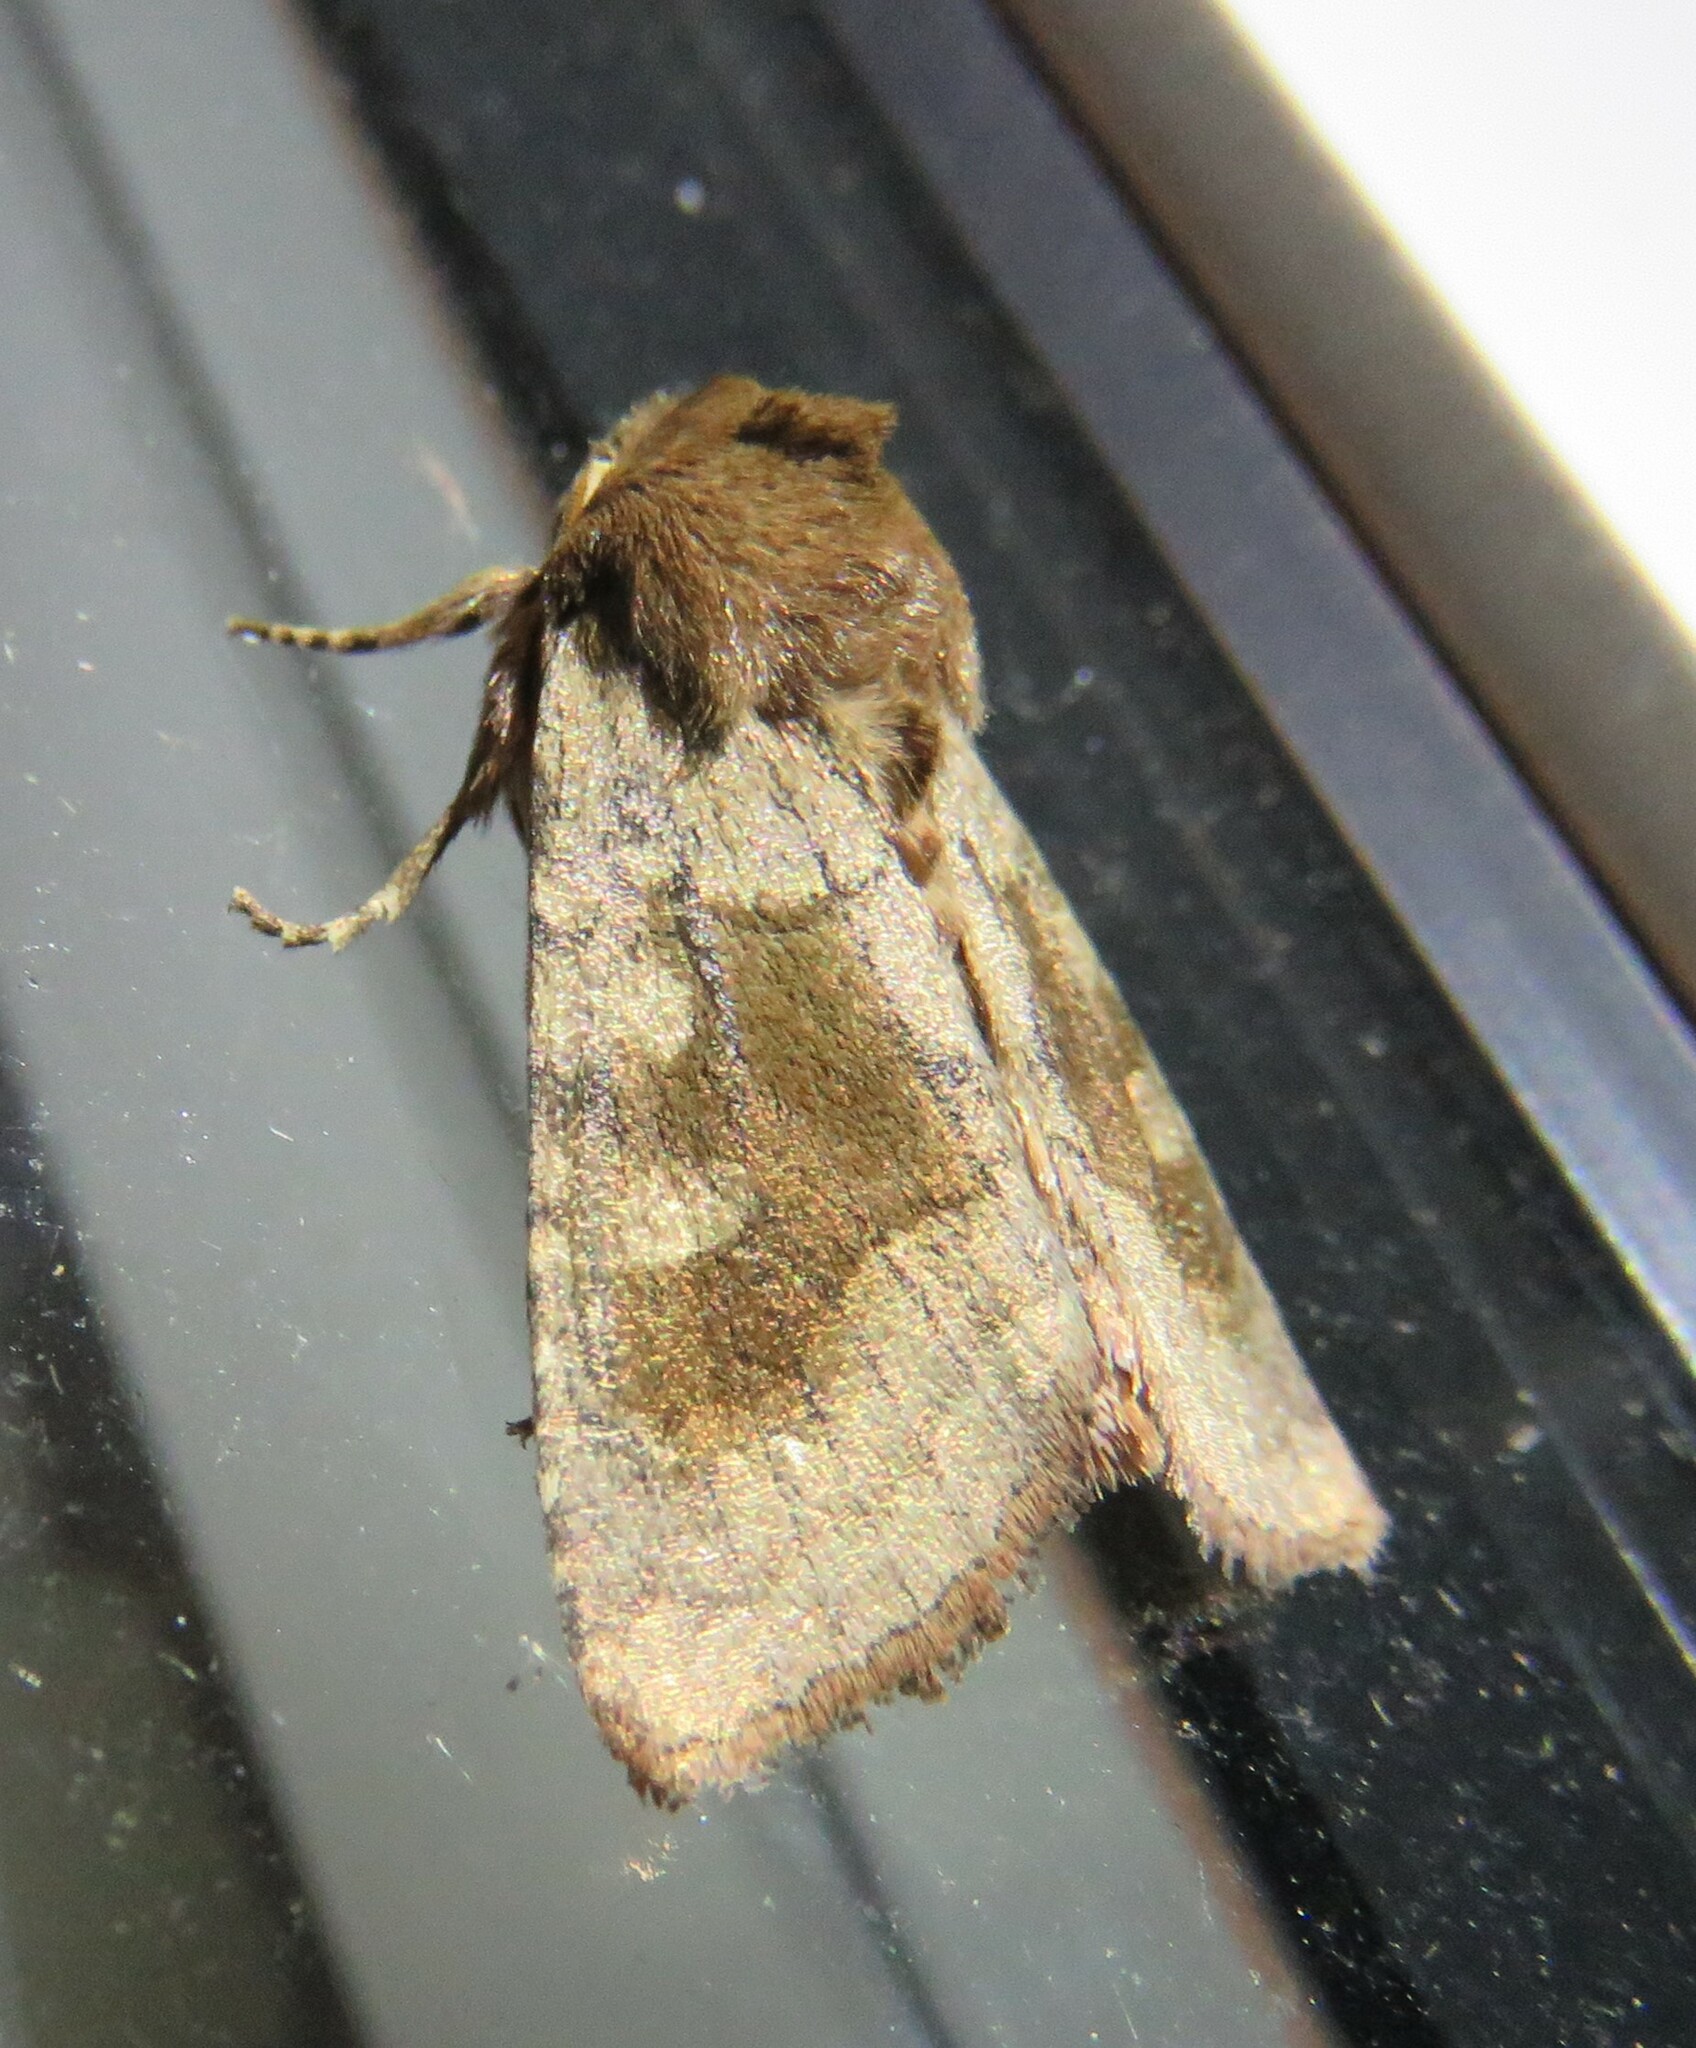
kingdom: Animalia
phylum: Arthropoda
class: Insecta
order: Lepidoptera
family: Noctuidae
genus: Nephelodes
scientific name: Nephelodes minians
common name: Bronzed cutworm
